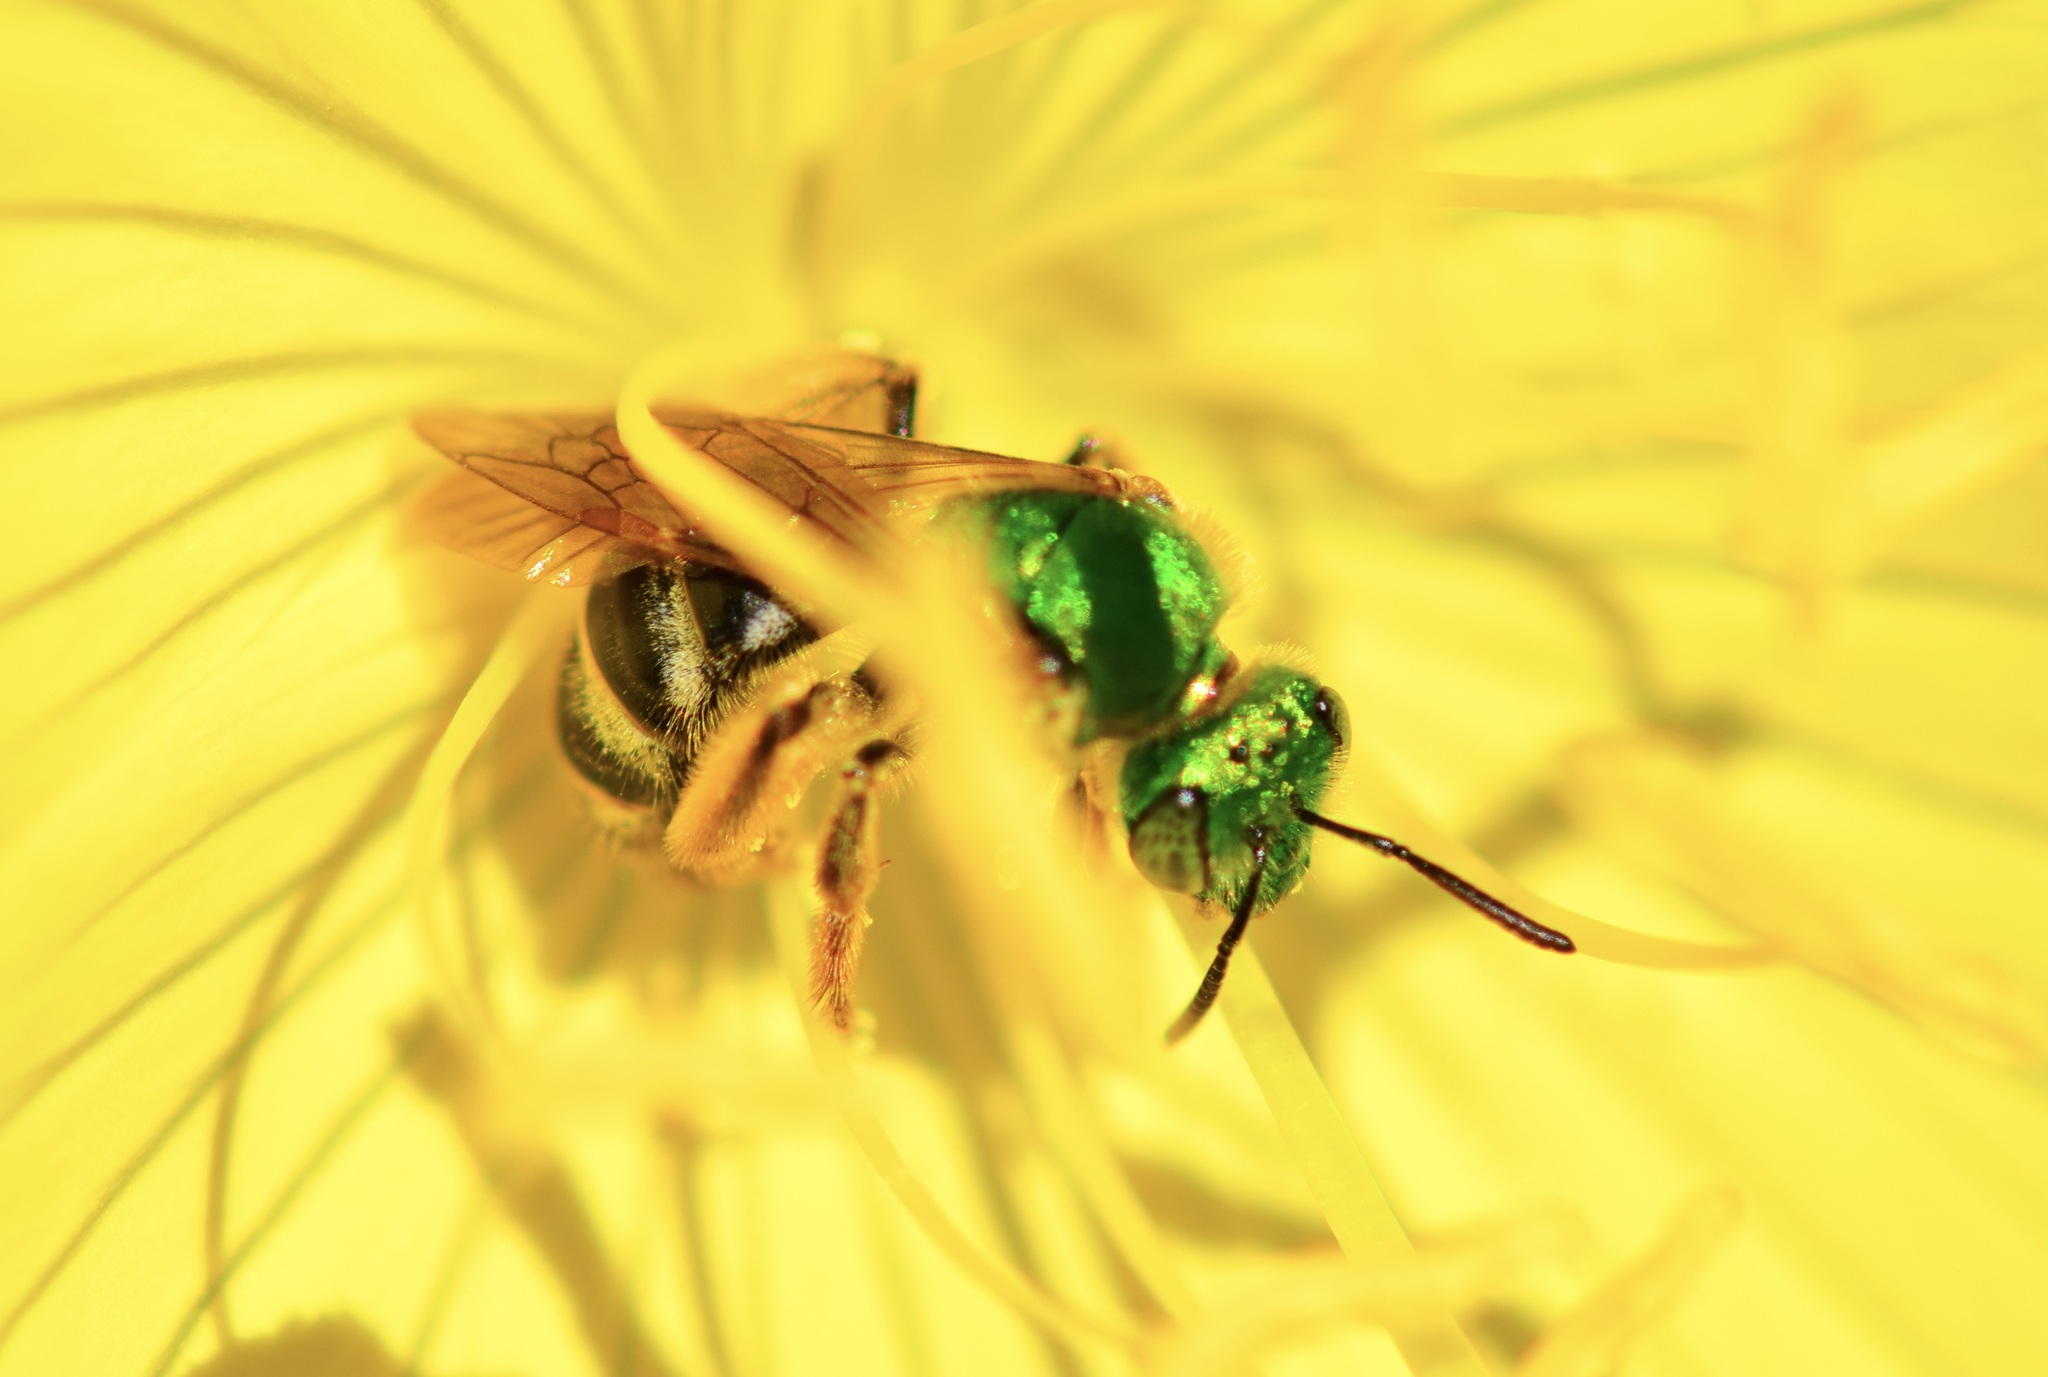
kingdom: Animalia
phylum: Arthropoda
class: Insecta
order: Hymenoptera
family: Halictidae
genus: Agapostemon
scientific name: Agapostemon virescens
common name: Bicolored striped sweat bee
